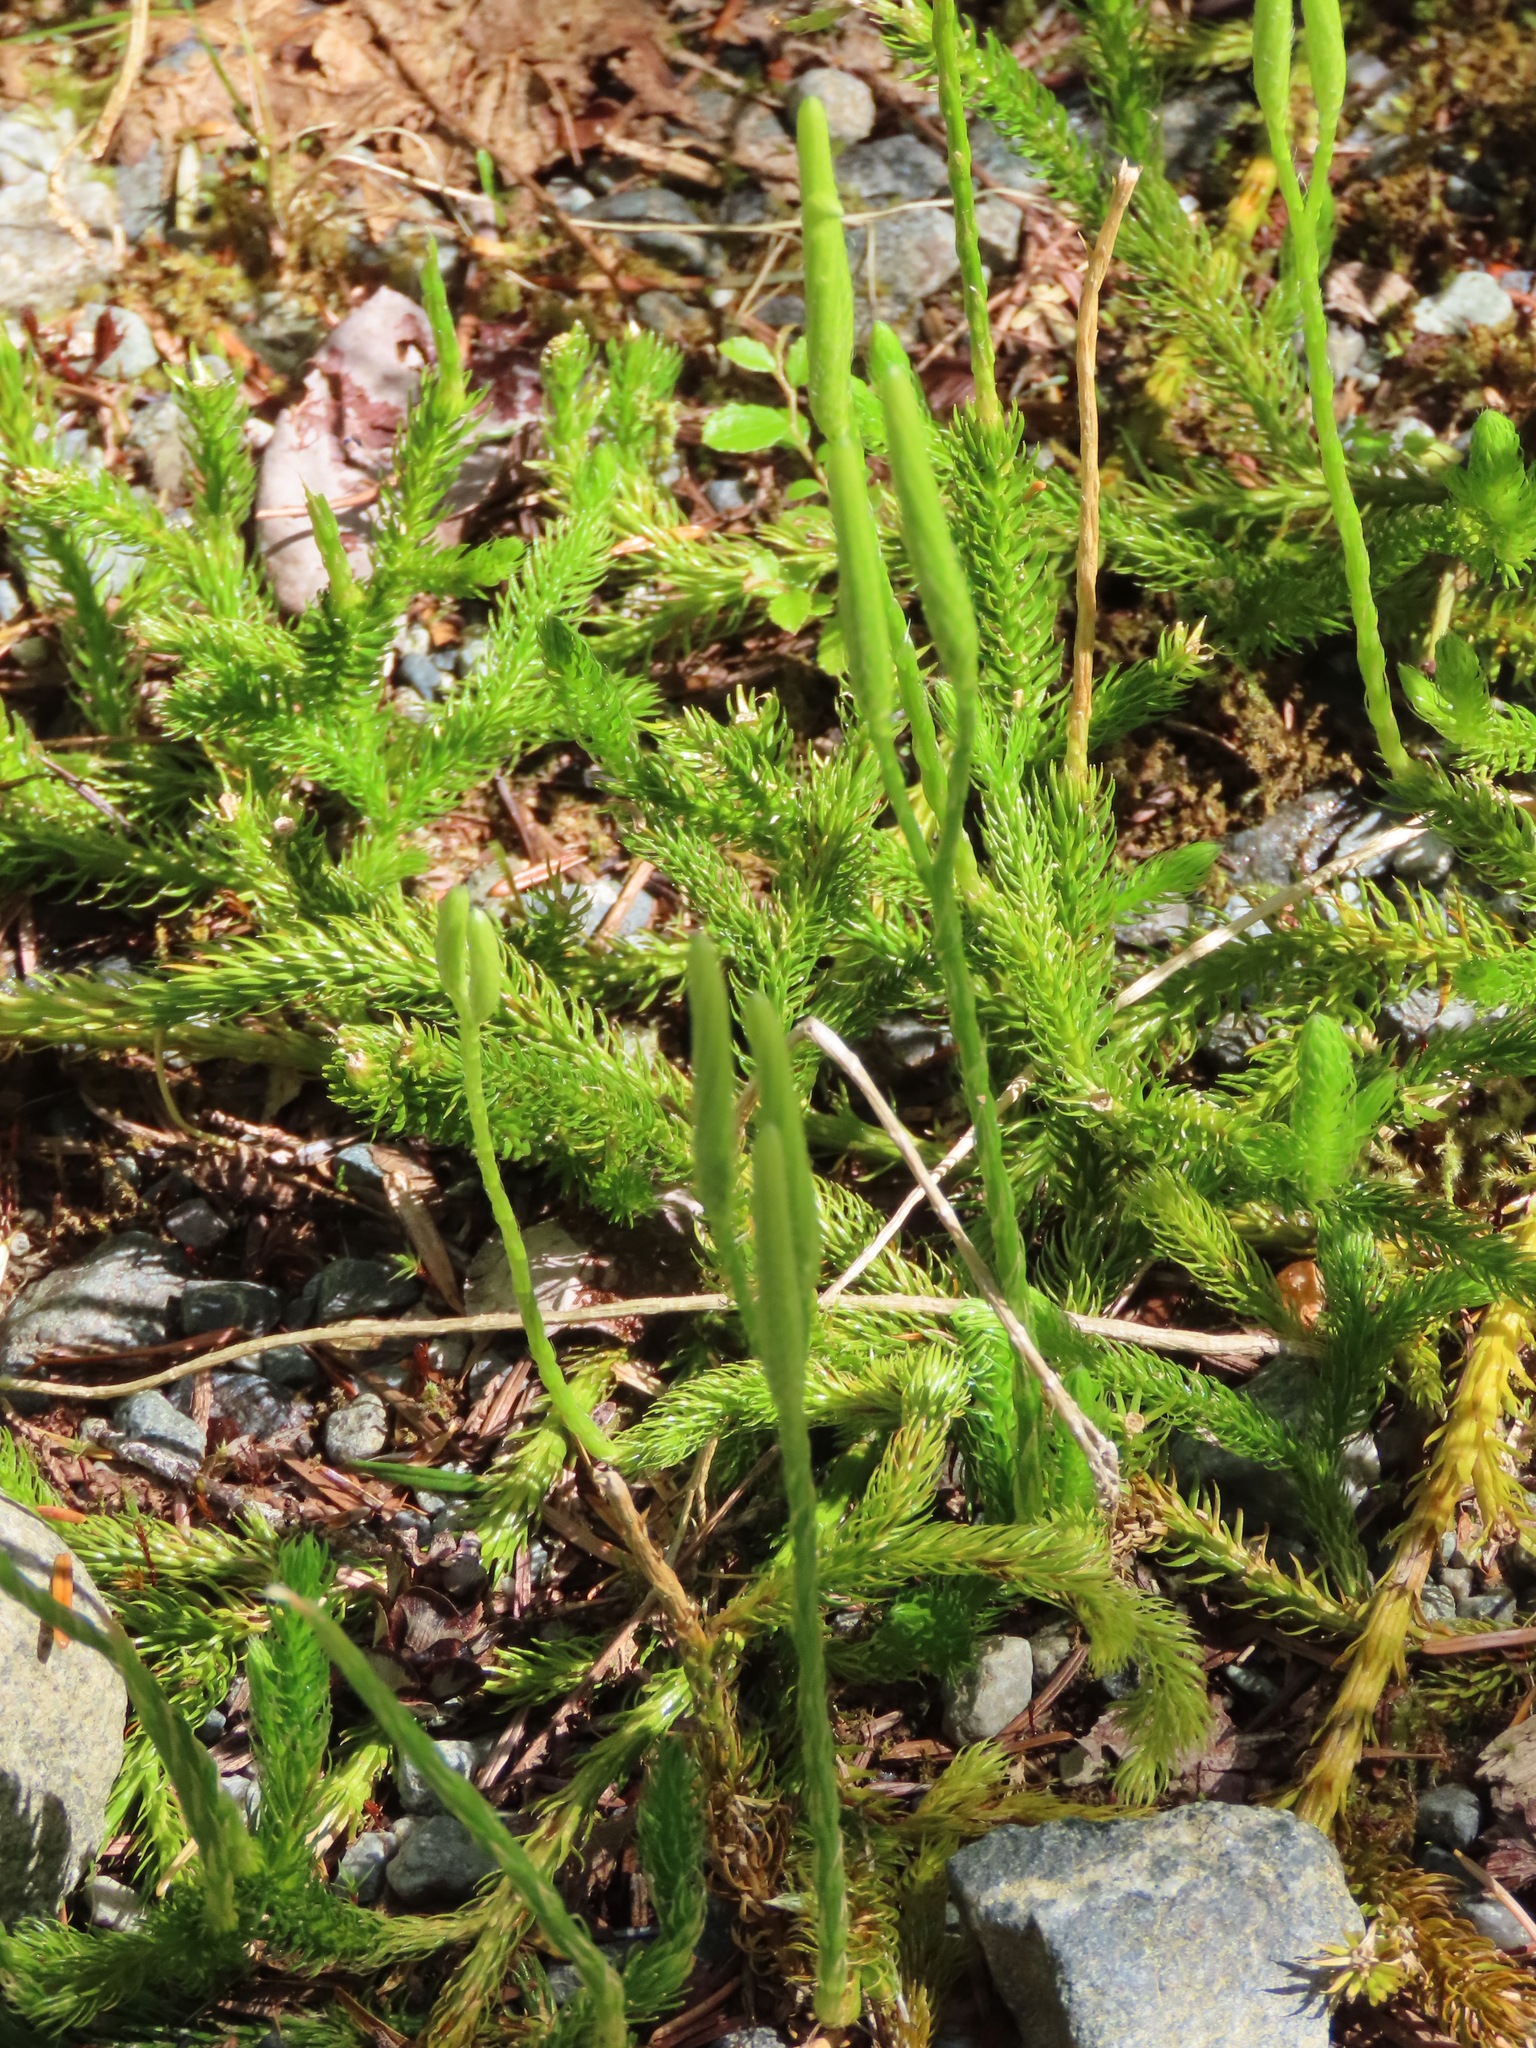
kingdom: Plantae
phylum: Tracheophyta
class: Lycopodiopsida
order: Lycopodiales
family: Lycopodiaceae
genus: Lycopodium
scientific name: Lycopodium clavatum
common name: Stag's-horn clubmoss
